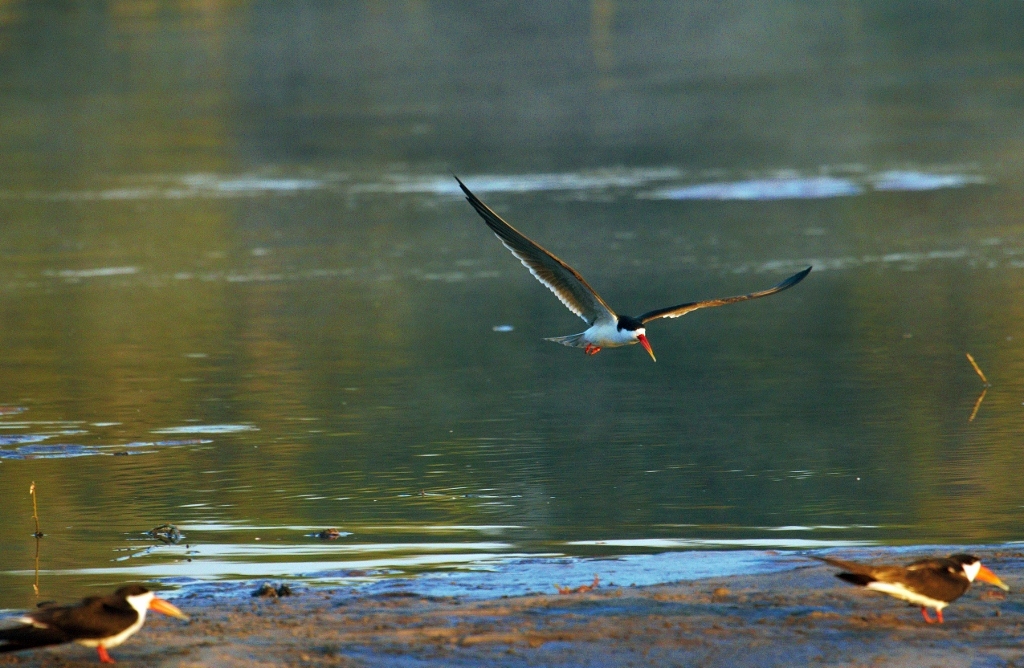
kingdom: Animalia
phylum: Chordata
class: Aves
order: Charadriiformes
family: Laridae
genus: Rynchops
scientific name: Rynchops flavirostris
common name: African skimmer
